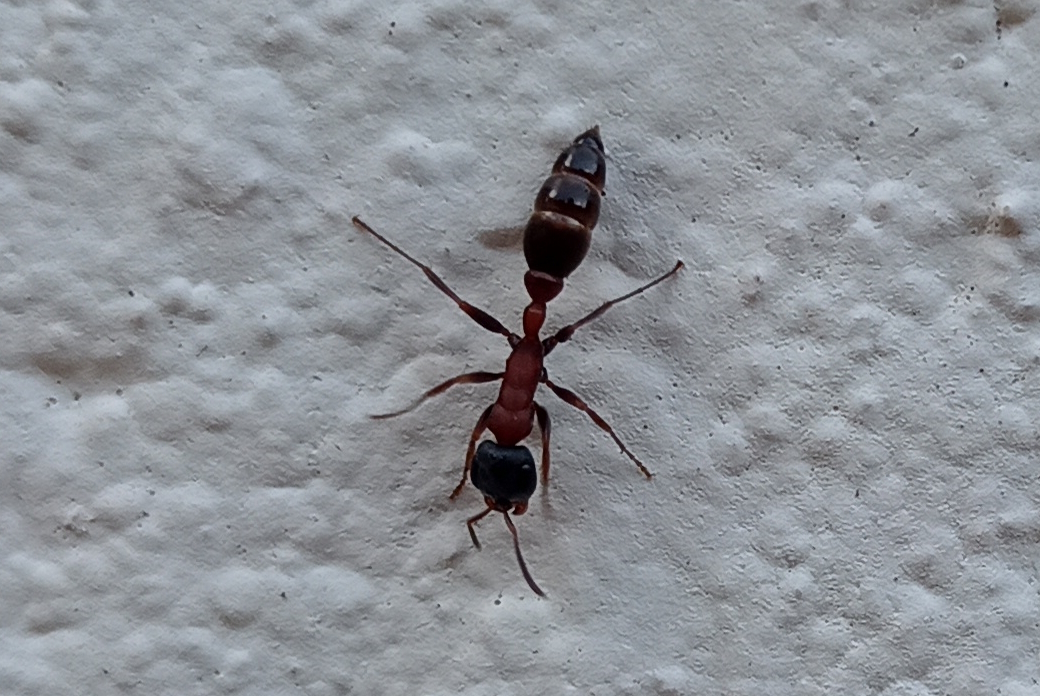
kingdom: Animalia
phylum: Arthropoda
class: Insecta
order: Hymenoptera
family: Formicidae
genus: Pseudomyrmex
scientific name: Pseudomyrmex termitarius
